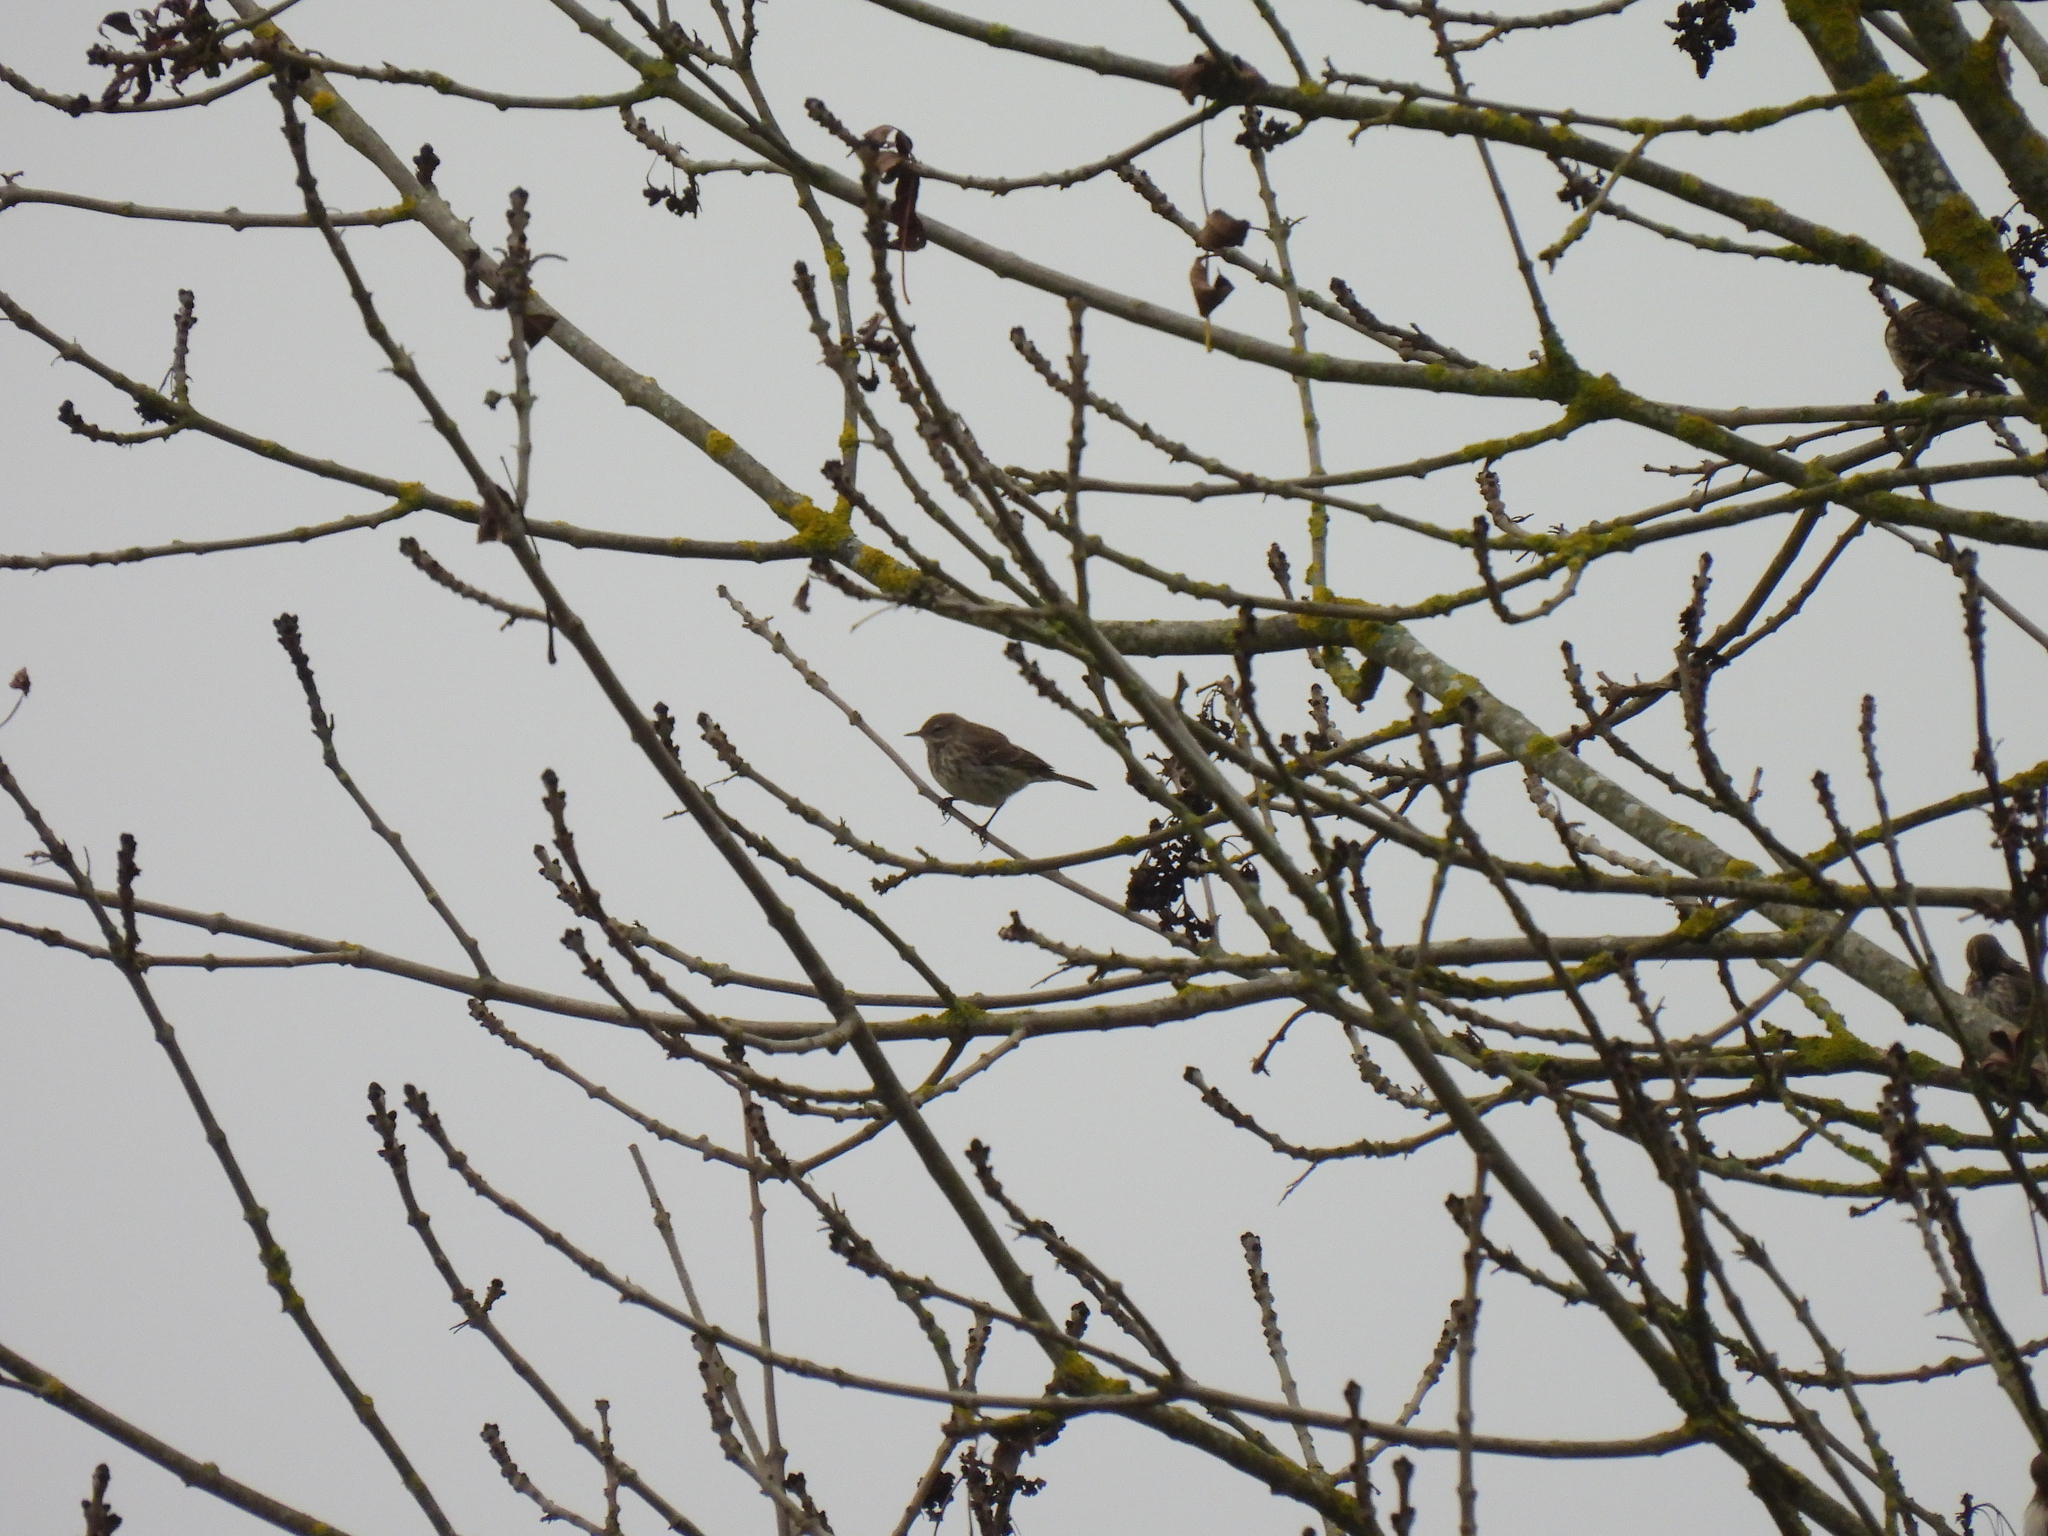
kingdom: Animalia
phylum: Chordata
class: Aves
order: Passeriformes
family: Motacillidae
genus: Anthus
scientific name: Anthus spinoletta
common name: Water pipit
